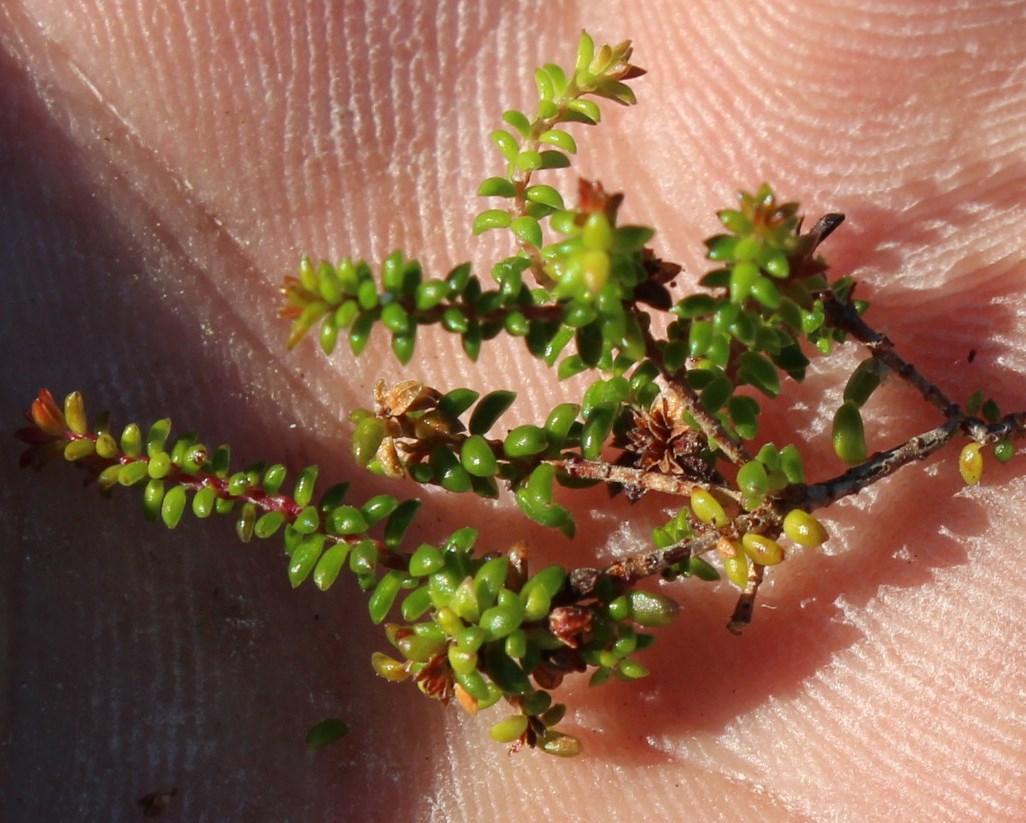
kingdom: Plantae
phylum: Tracheophyta
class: Magnoliopsida
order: Ericales
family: Ericaceae
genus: Erica
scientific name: Erica saxicola
